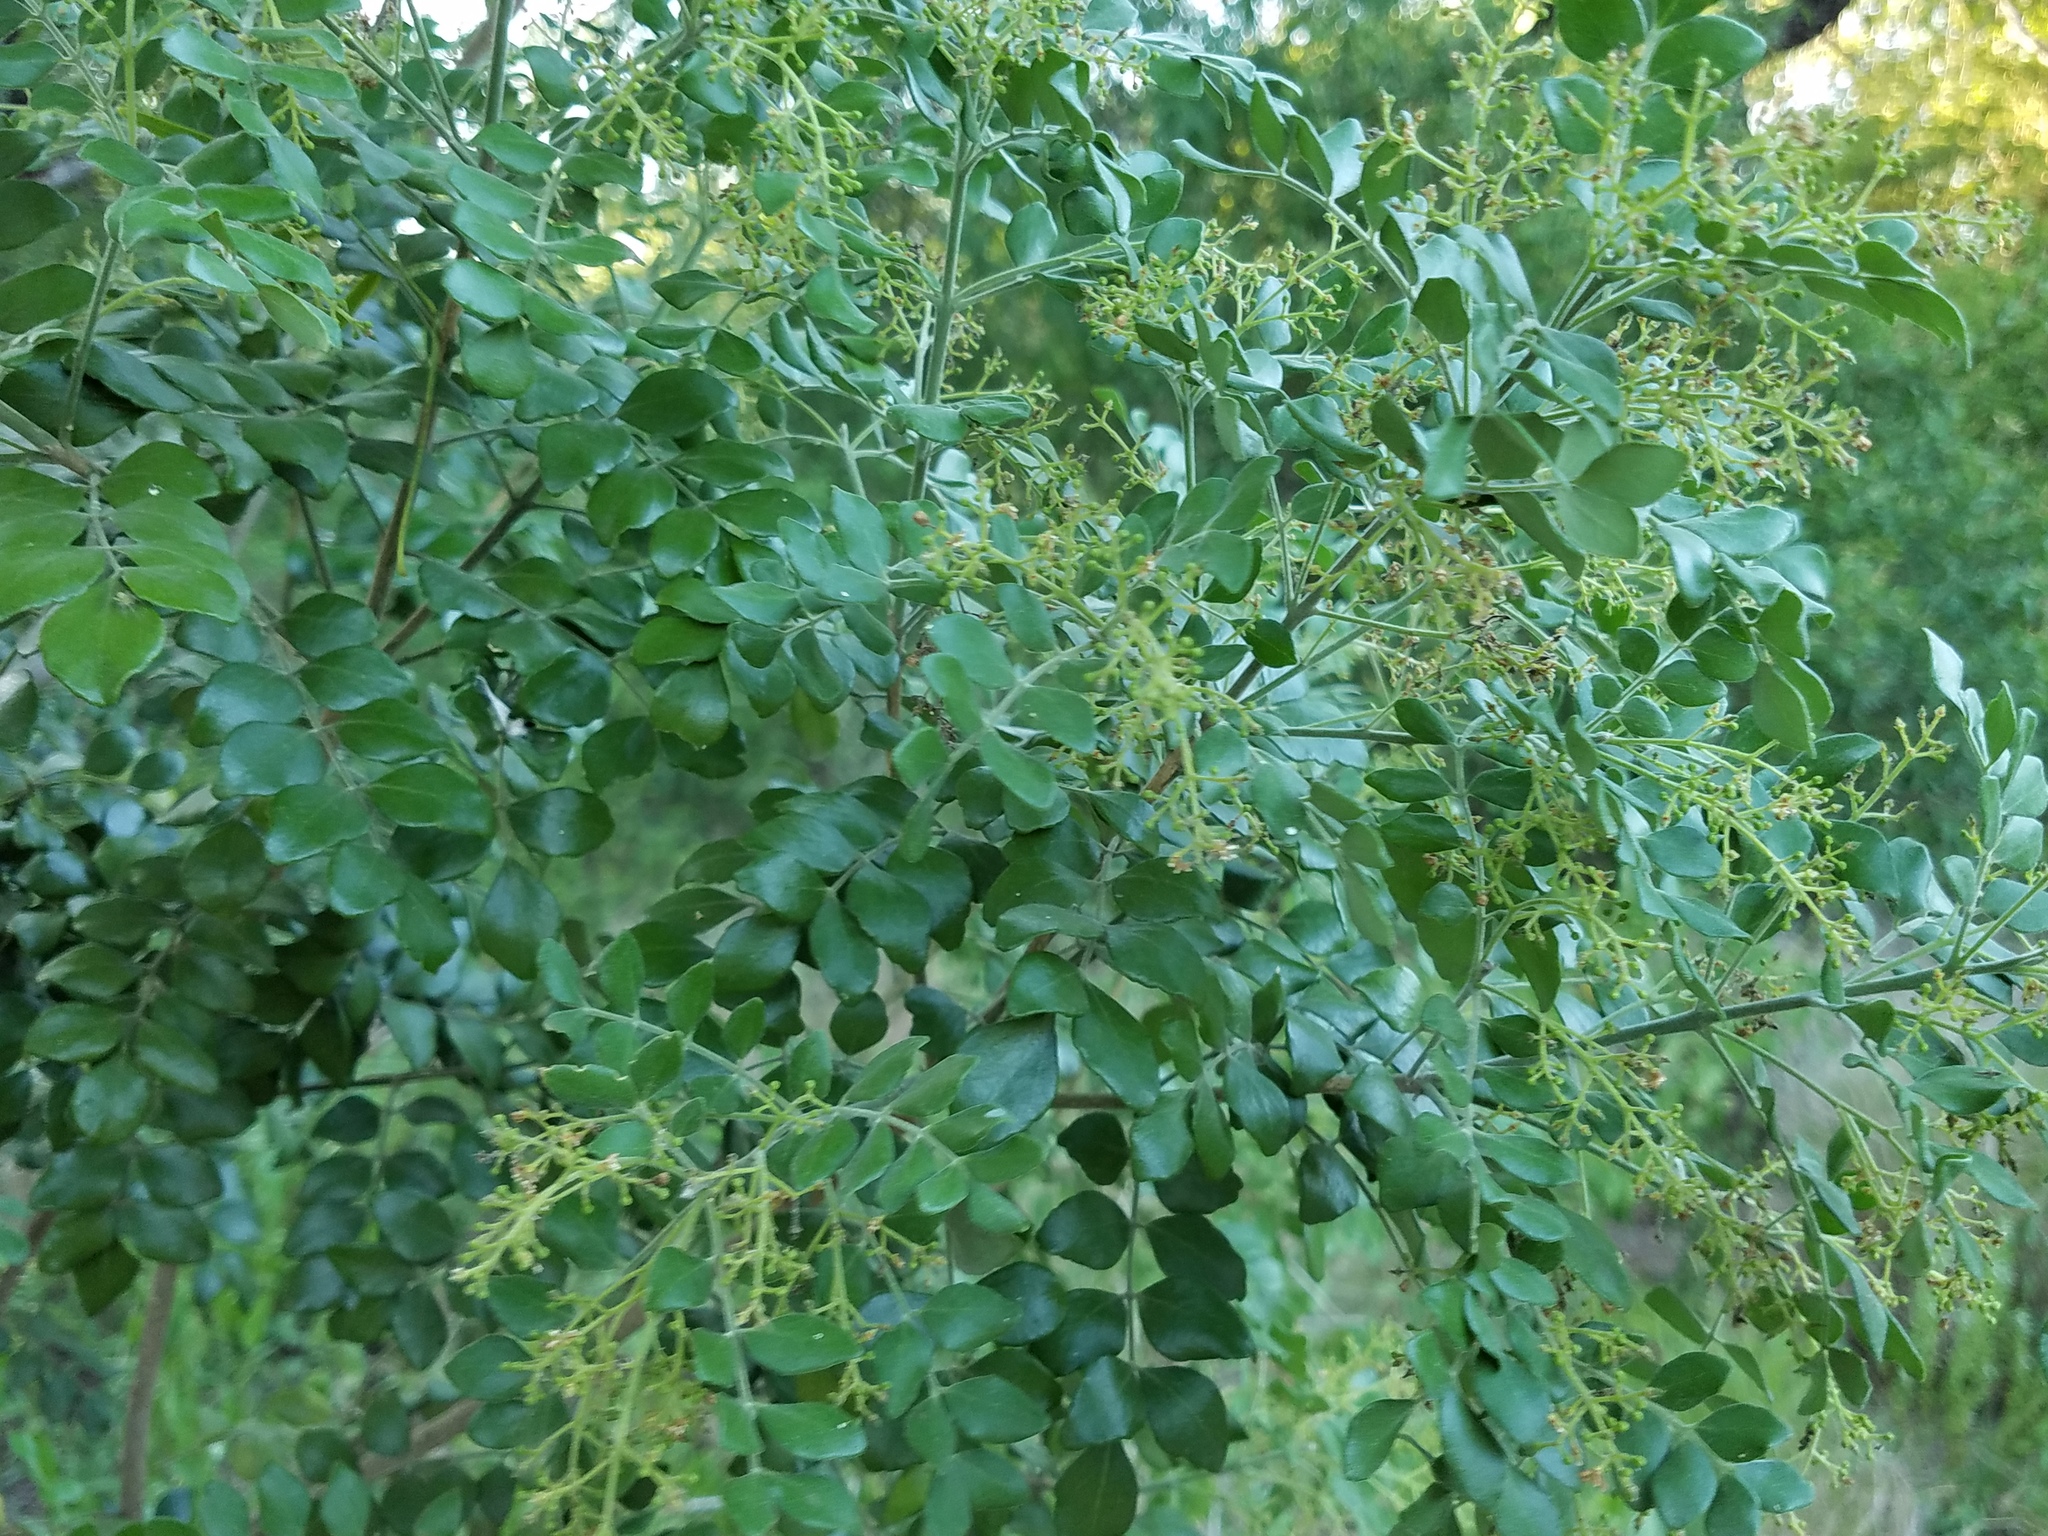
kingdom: Plantae
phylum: Tracheophyta
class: Magnoliopsida
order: Sapindales
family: Rutaceae
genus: Amyris
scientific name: Amyris madrensis
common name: Mountain torchwood
